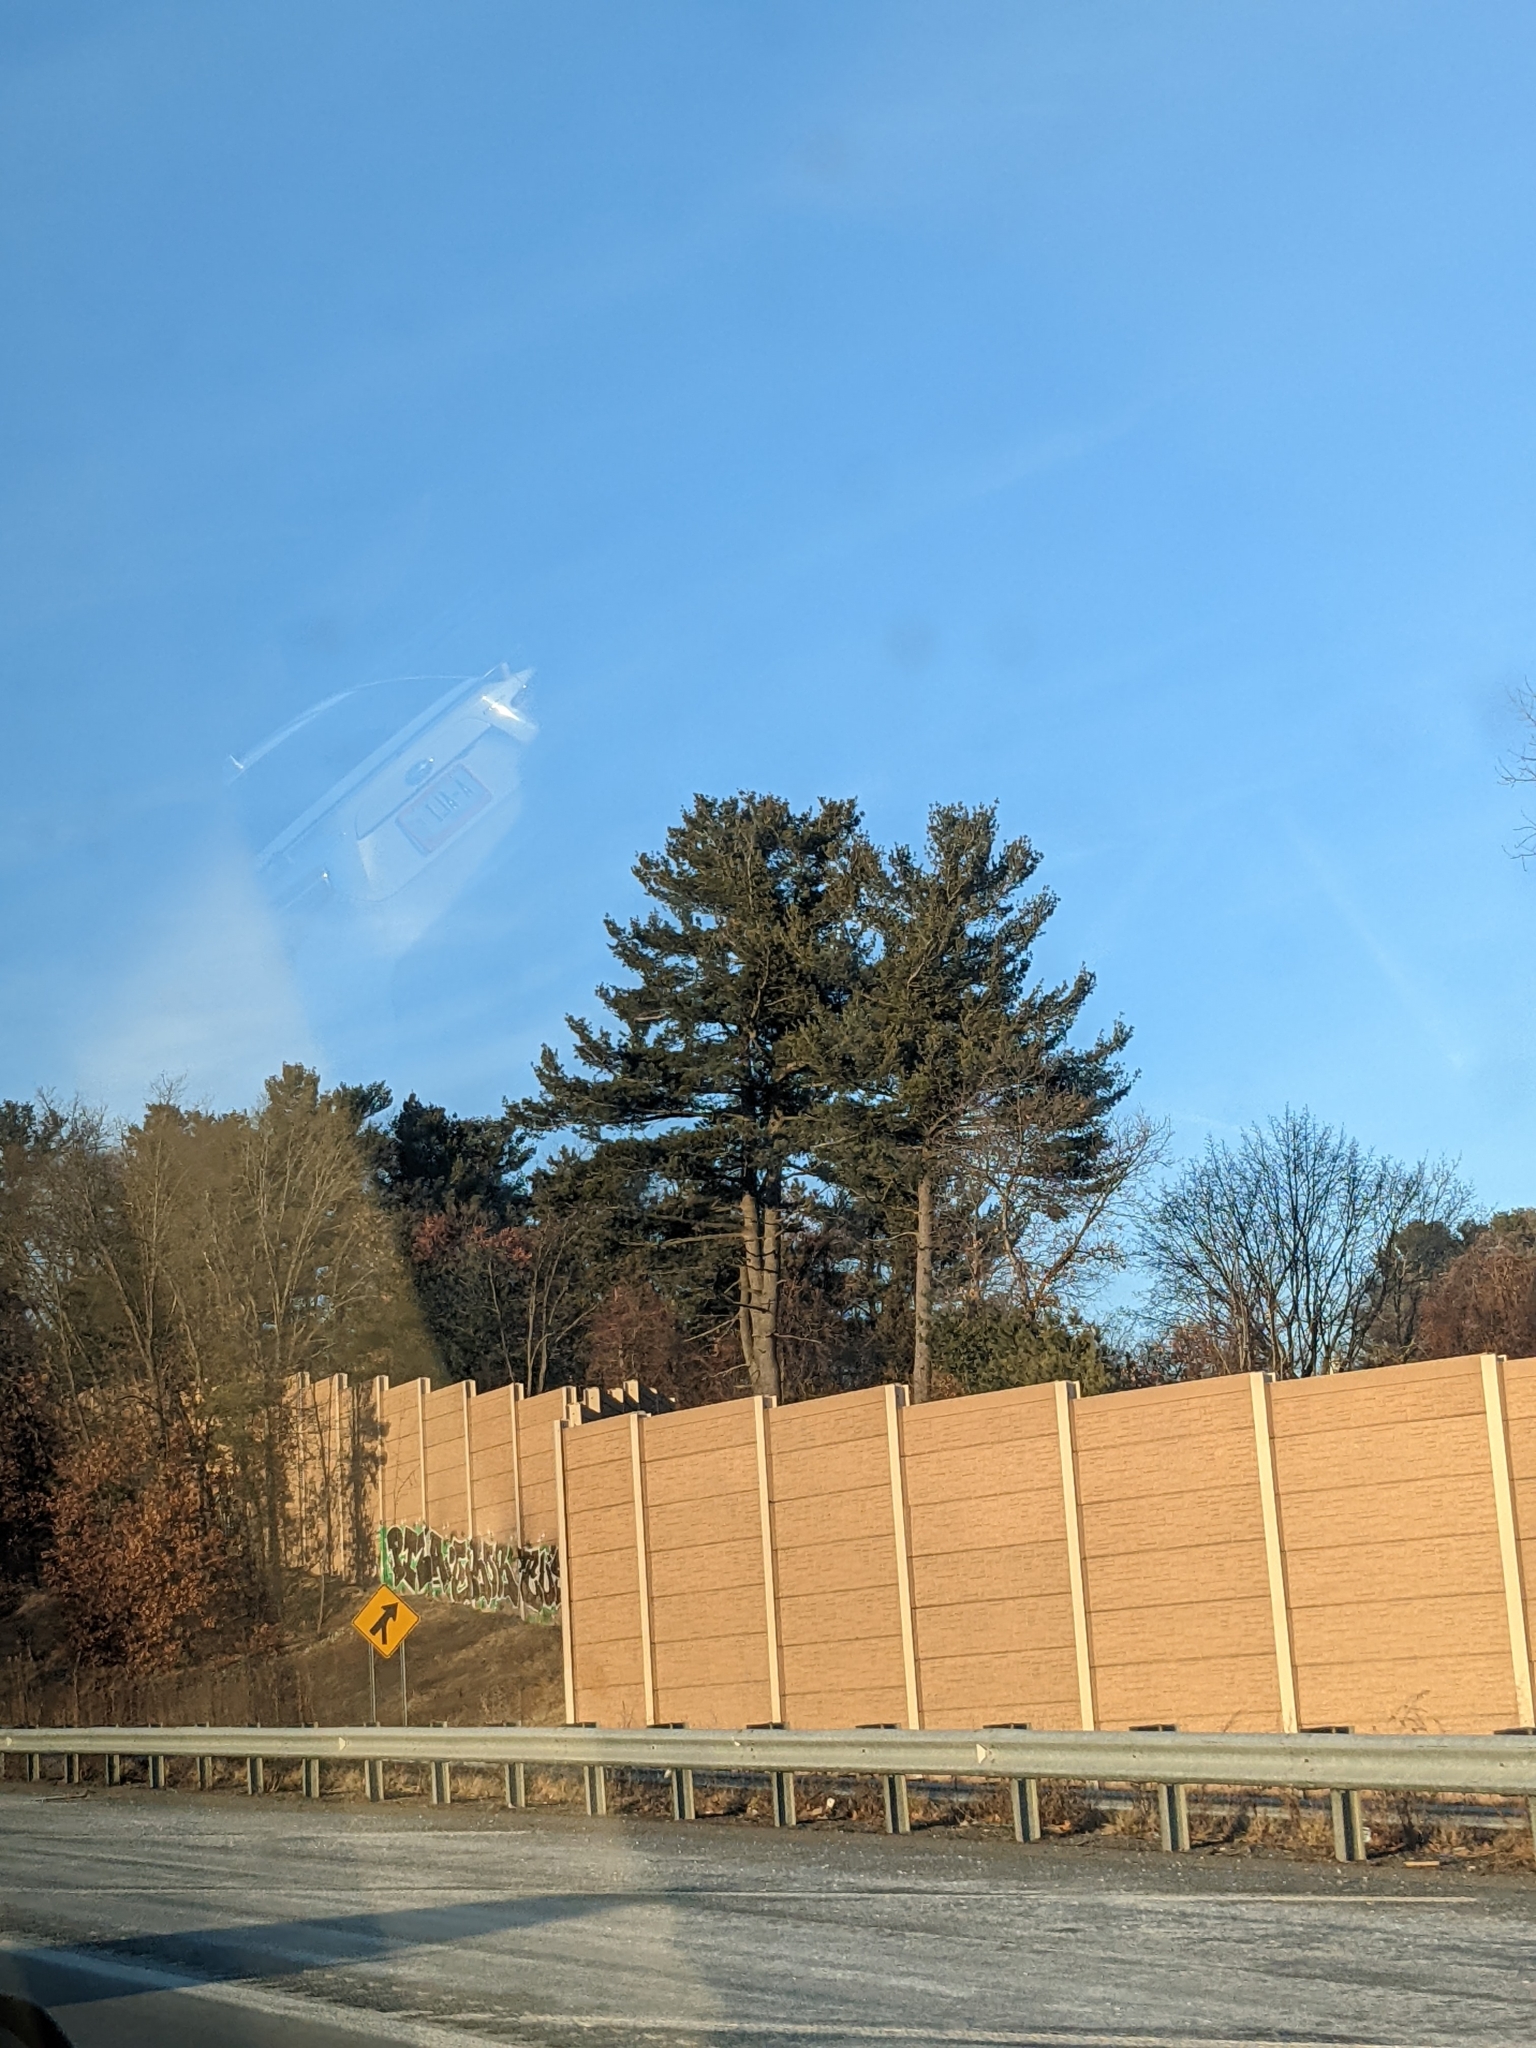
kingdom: Plantae
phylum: Tracheophyta
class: Pinopsida
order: Pinales
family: Pinaceae
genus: Pinus
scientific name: Pinus strobus
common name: Weymouth pine
